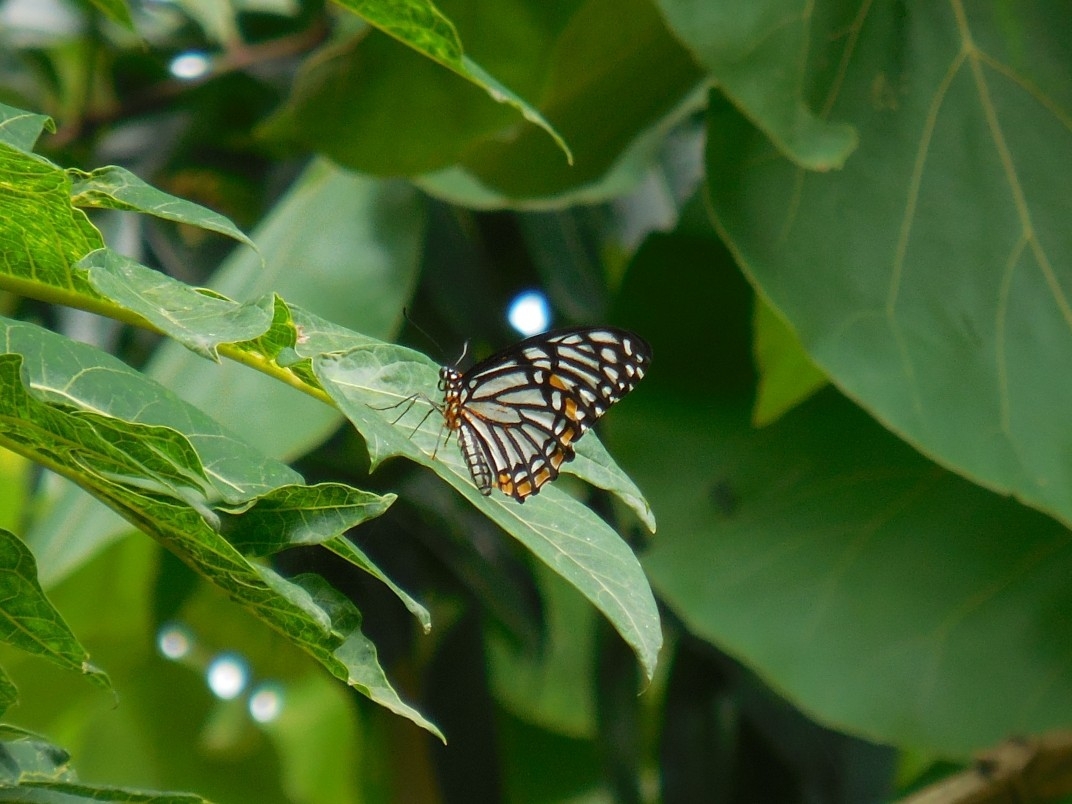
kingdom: Animalia
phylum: Arthropoda
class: Insecta
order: Lepidoptera
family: Papilionidae
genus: Chilasa
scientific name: Chilasa clytia
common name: Common mime
